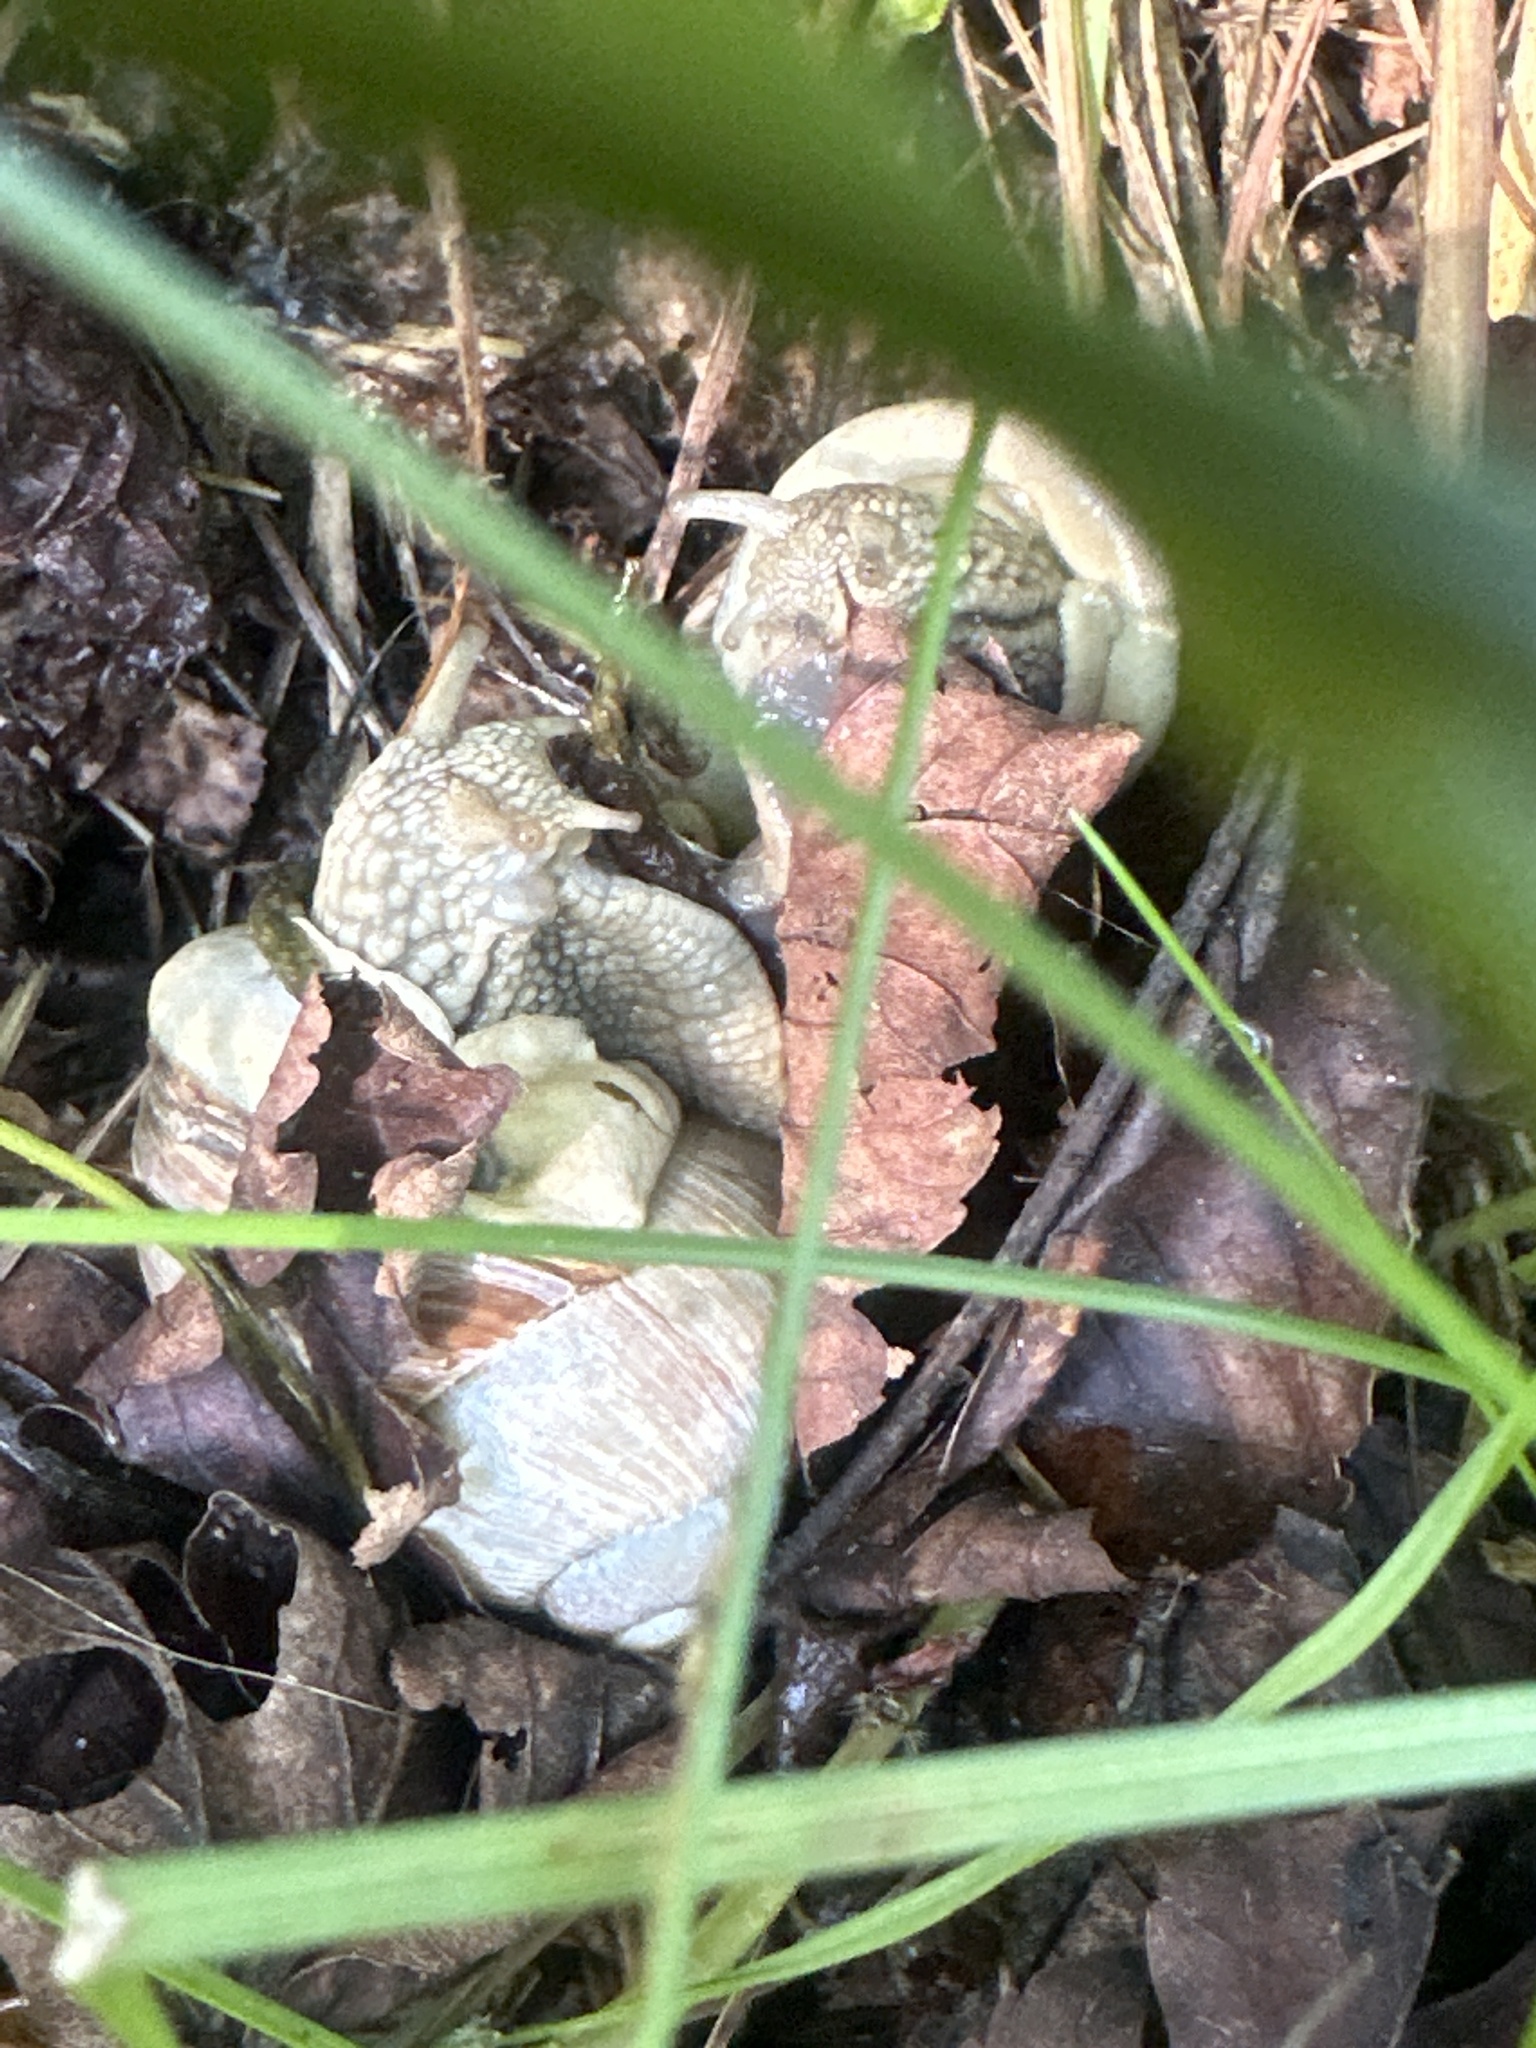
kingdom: Animalia
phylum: Mollusca
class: Gastropoda
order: Stylommatophora
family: Helicidae
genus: Helix
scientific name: Helix pomatia
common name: Roman snail
